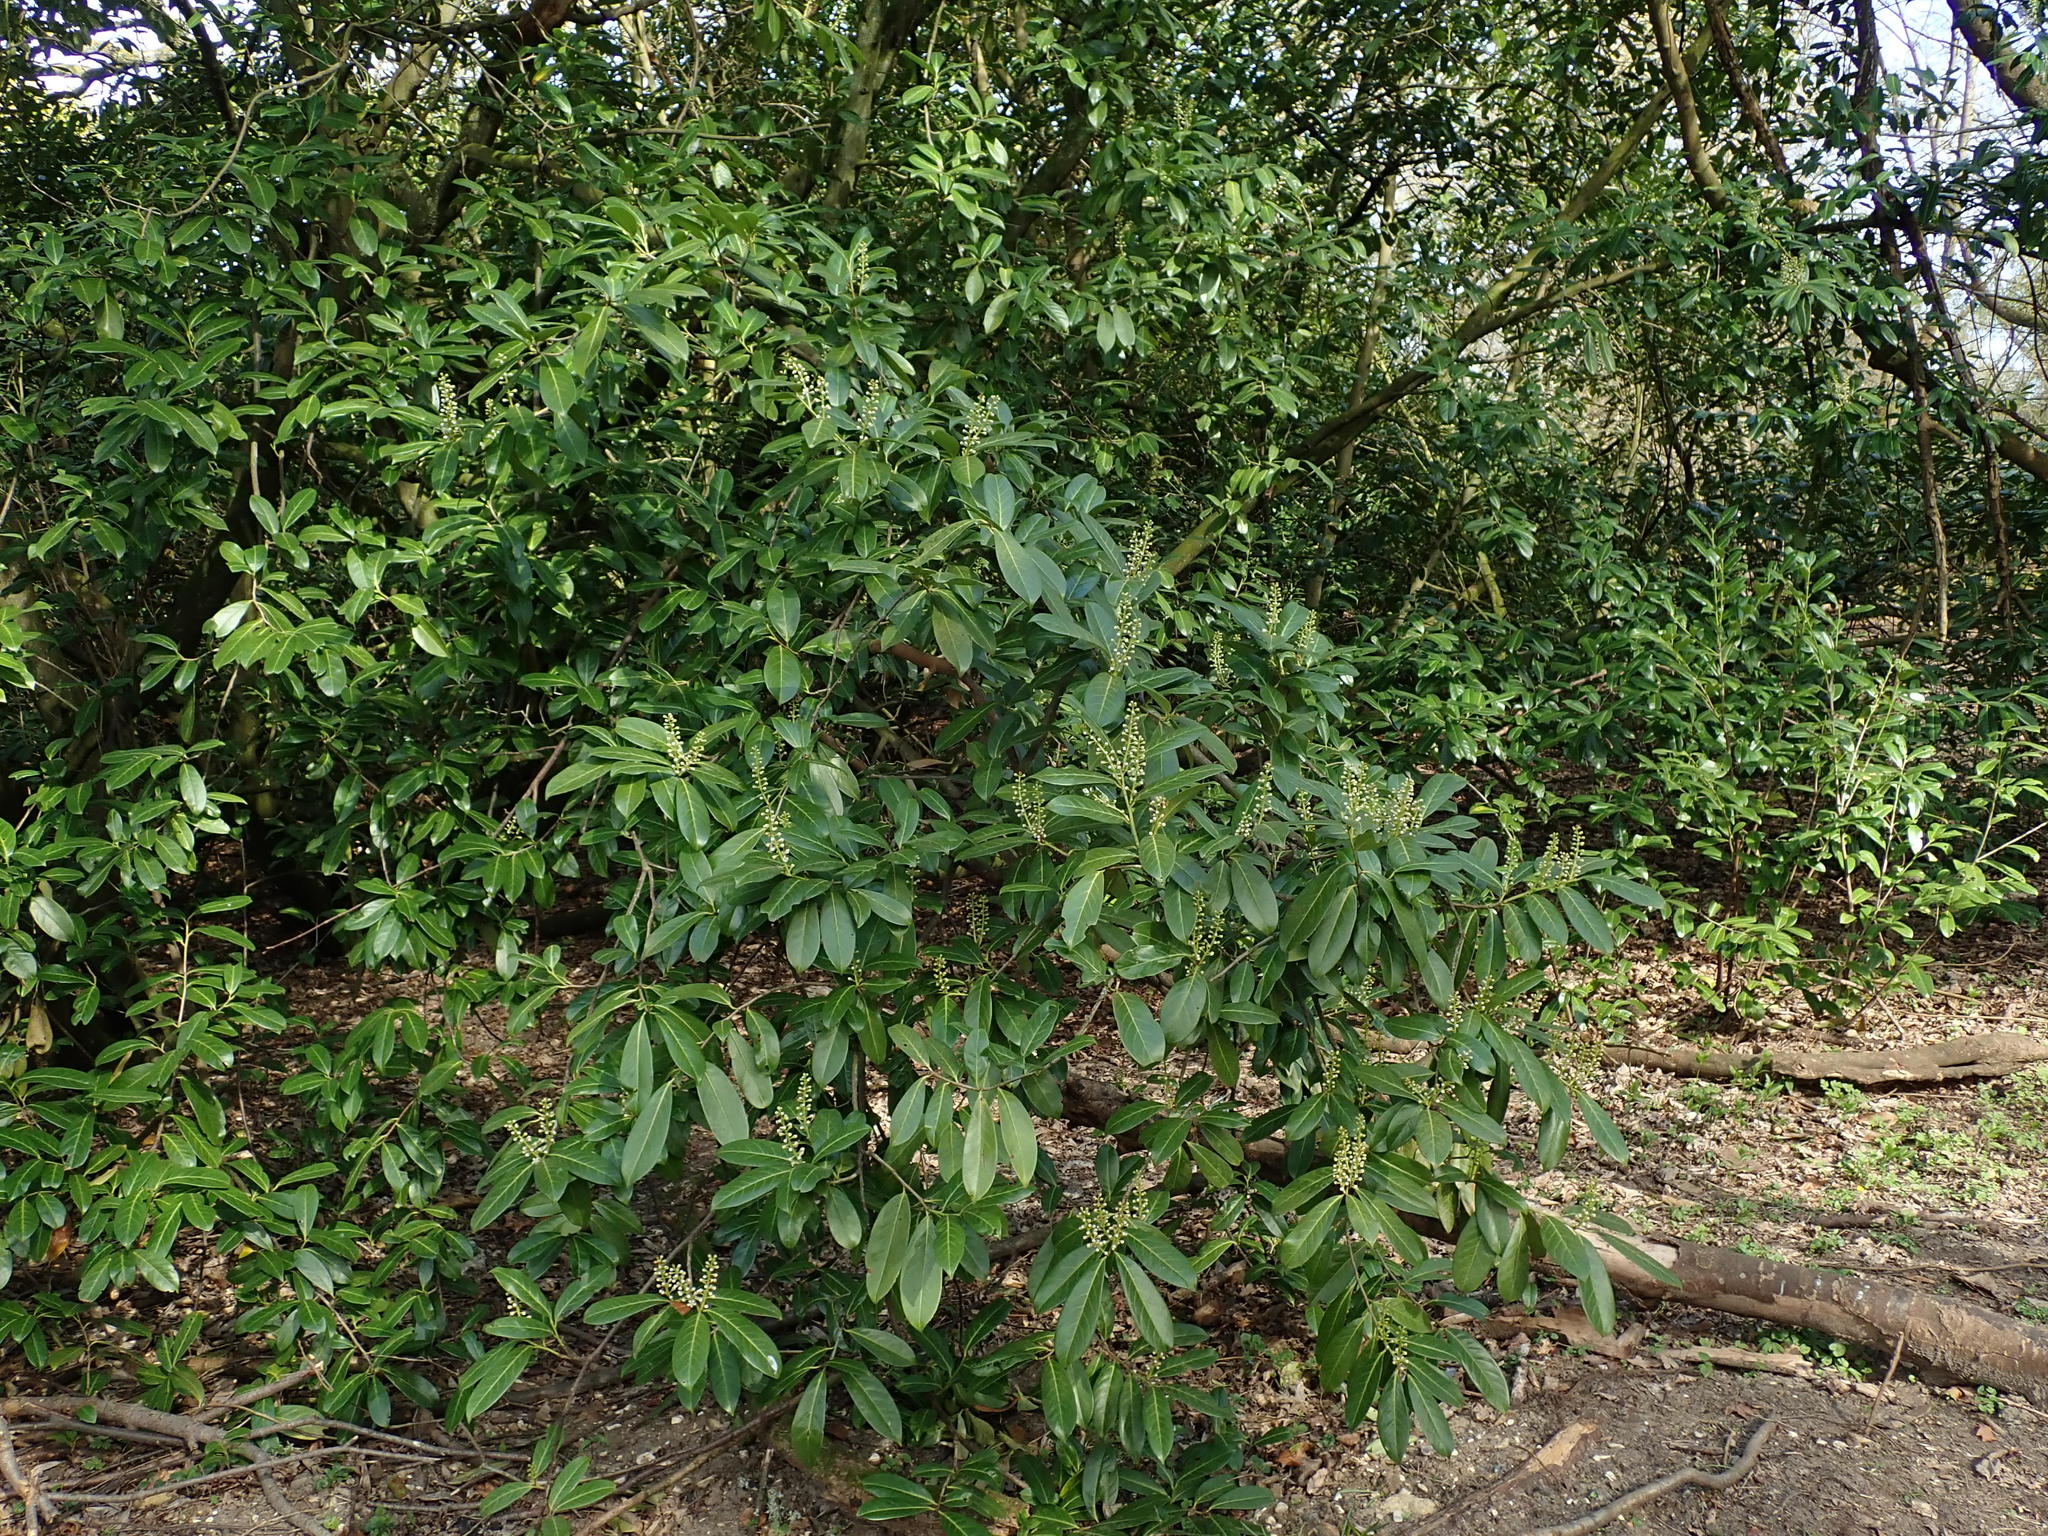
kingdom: Plantae
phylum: Tracheophyta
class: Magnoliopsida
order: Rosales
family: Rosaceae
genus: Prunus
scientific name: Prunus laurocerasus
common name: Cherry laurel
